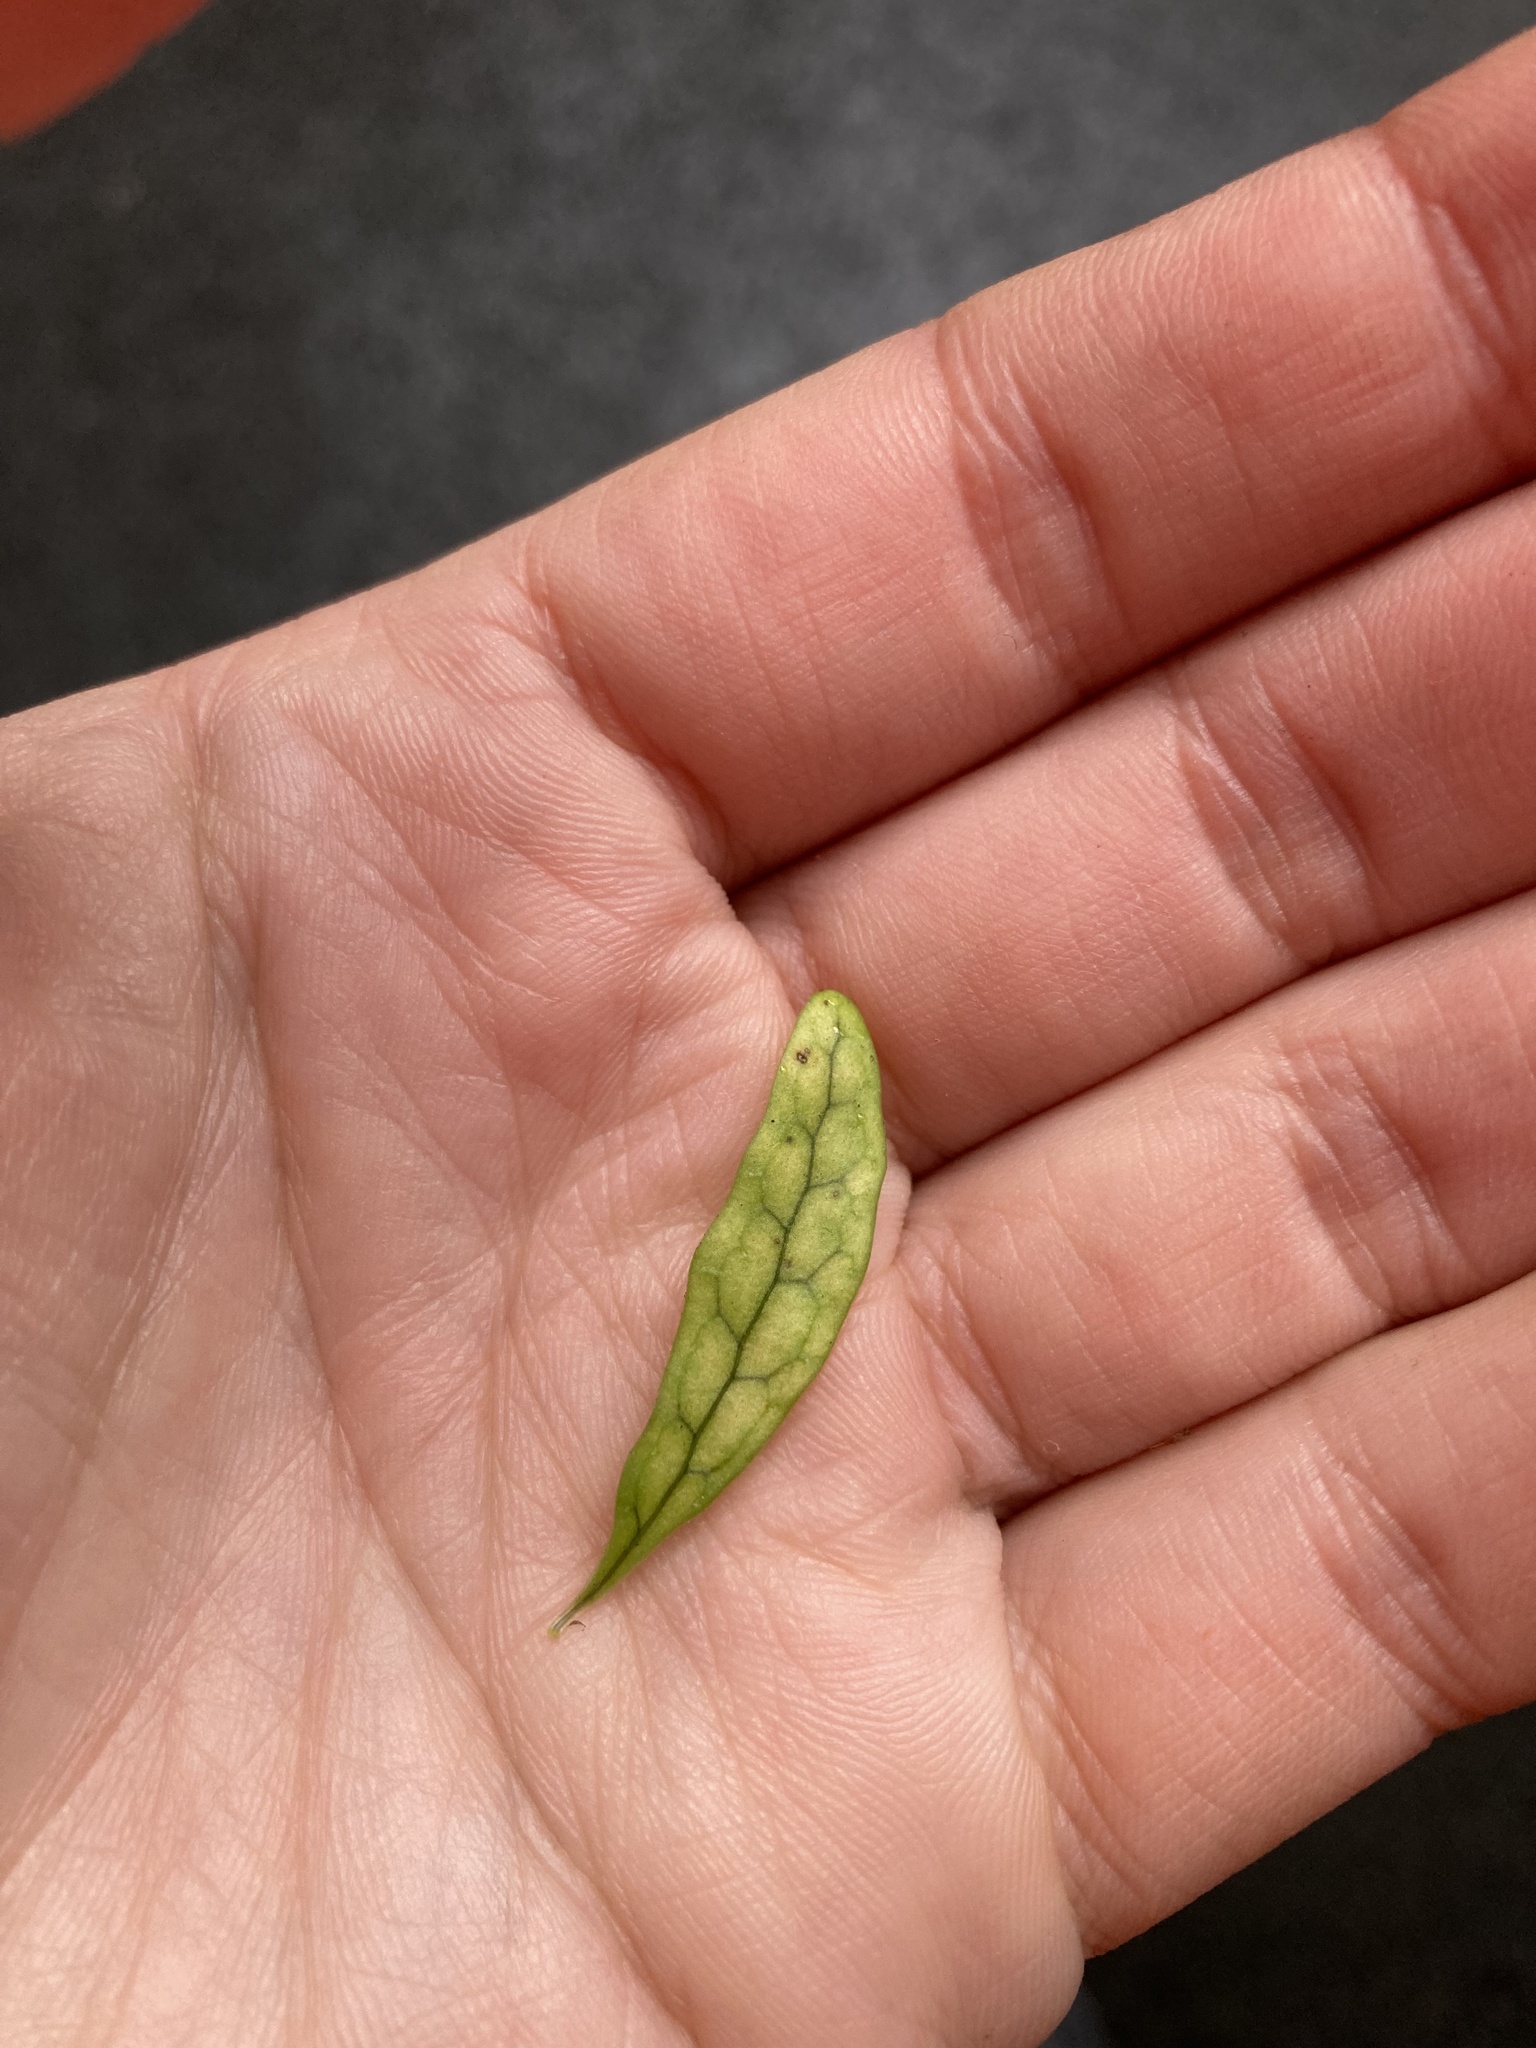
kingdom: Plantae
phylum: Tracheophyta
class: Polypodiopsida
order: Polypodiales
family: Polypodiaceae
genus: Lecanopteris
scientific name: Lecanopteris scandens
